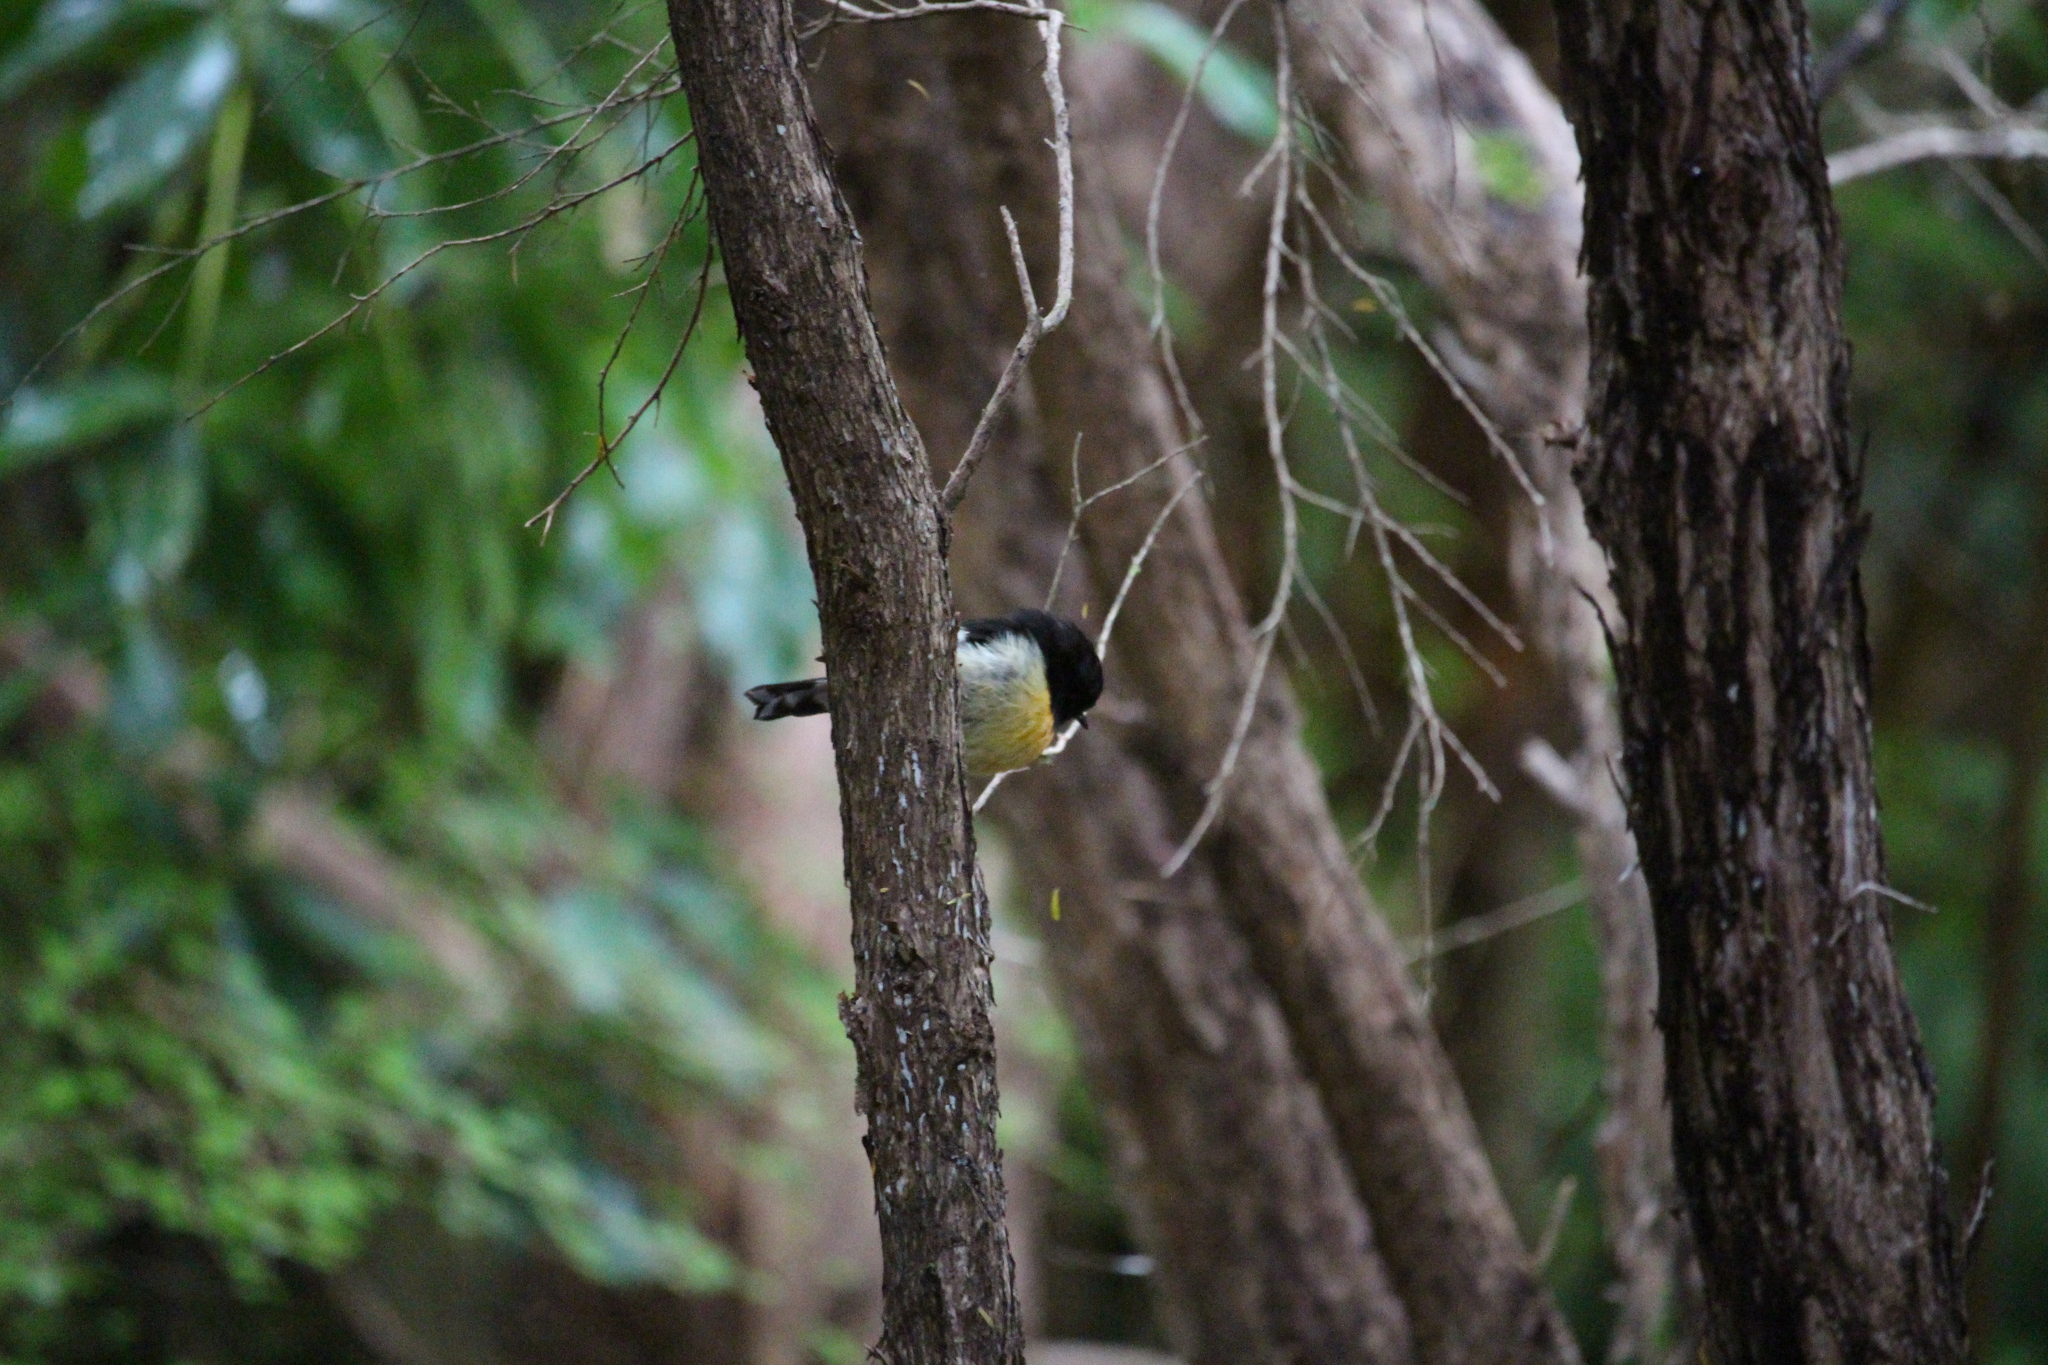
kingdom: Animalia
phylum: Chordata
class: Aves
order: Passeriformes
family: Petroicidae
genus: Petroica
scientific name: Petroica macrocephala
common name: Tomtit
